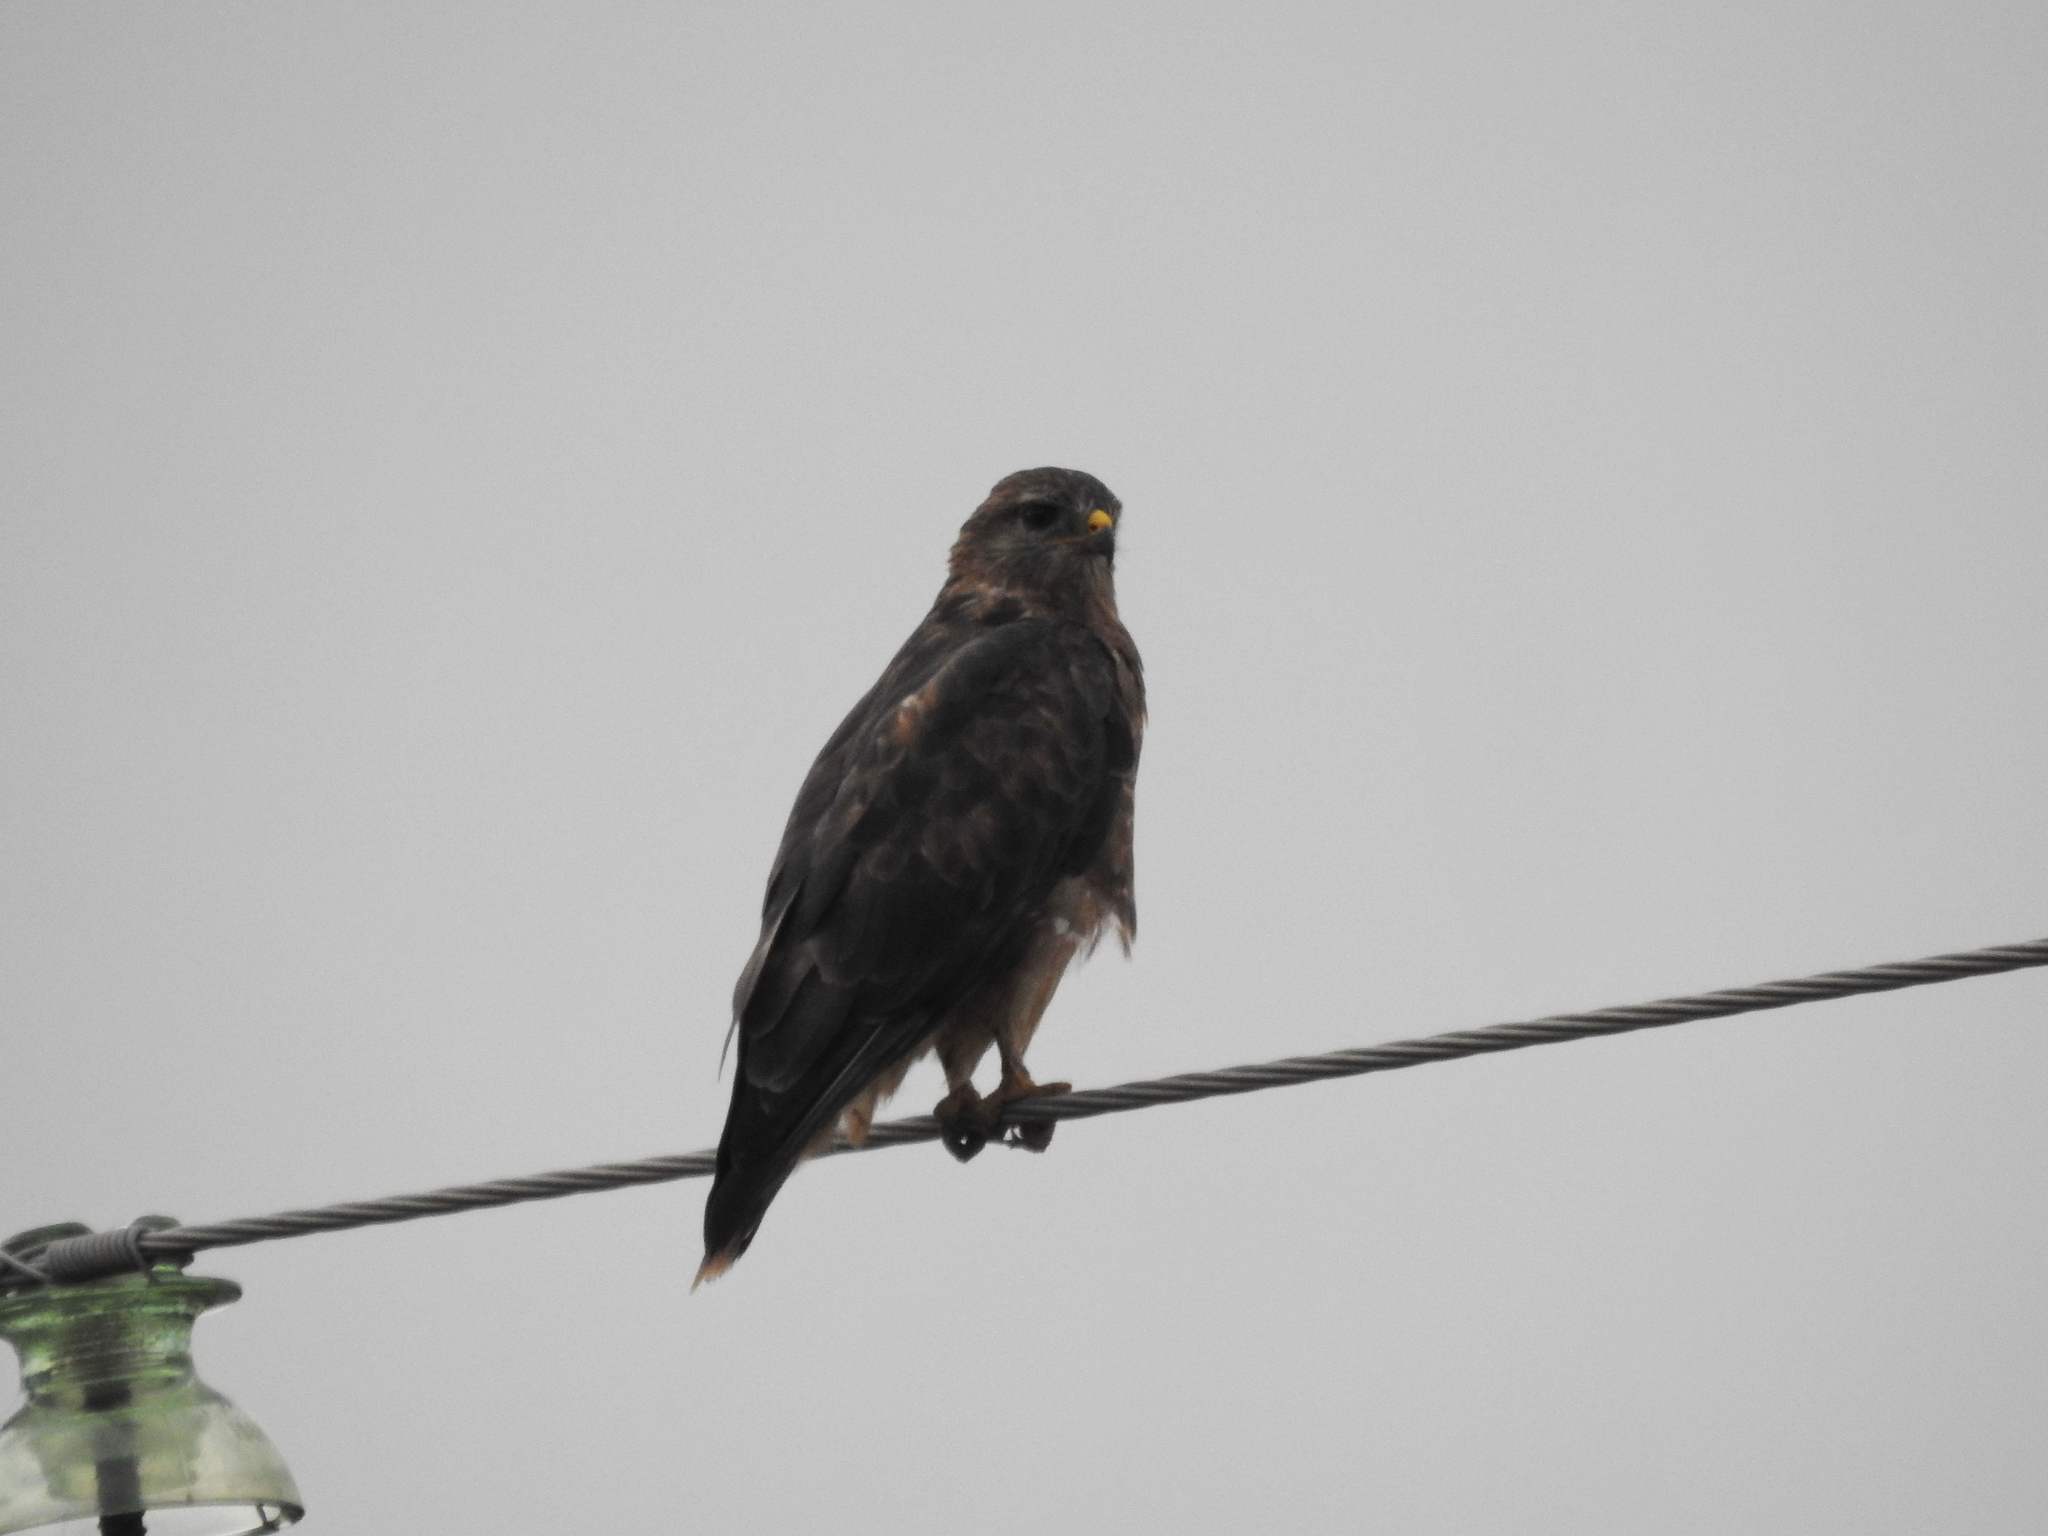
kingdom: Animalia
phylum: Chordata
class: Aves
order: Accipitriformes
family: Accipitridae
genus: Buteo
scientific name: Buteo buteo
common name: Common buzzard
